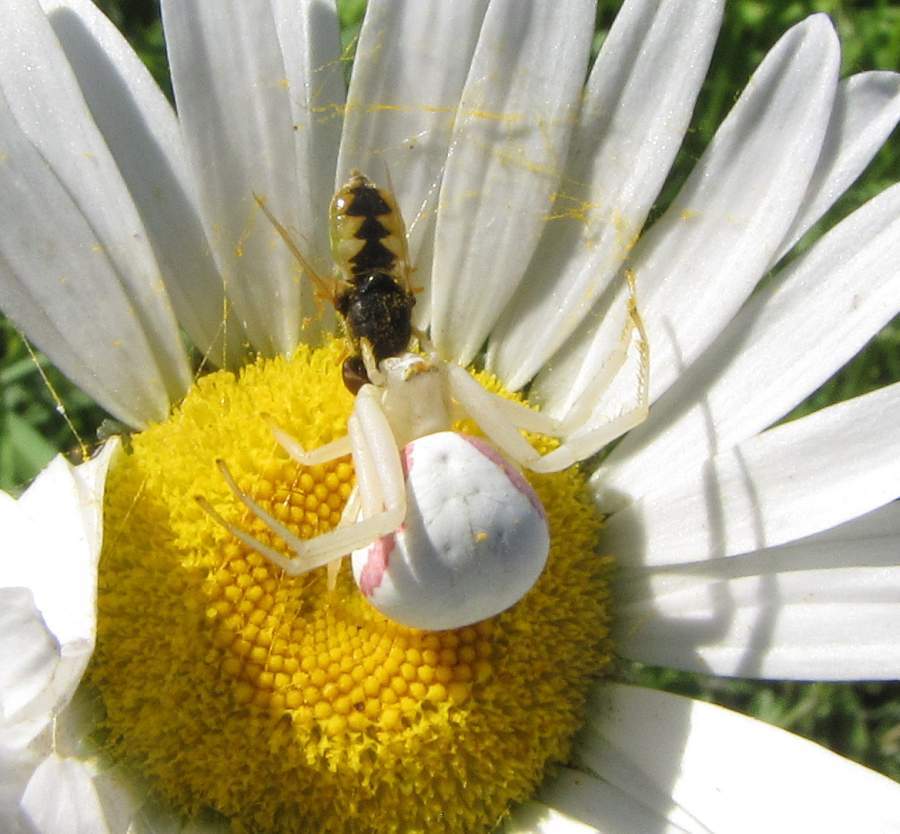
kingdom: Animalia
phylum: Arthropoda
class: Arachnida
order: Araneae
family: Thomisidae
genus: Misumena
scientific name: Misumena vatia
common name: Goldenrod crab spider
